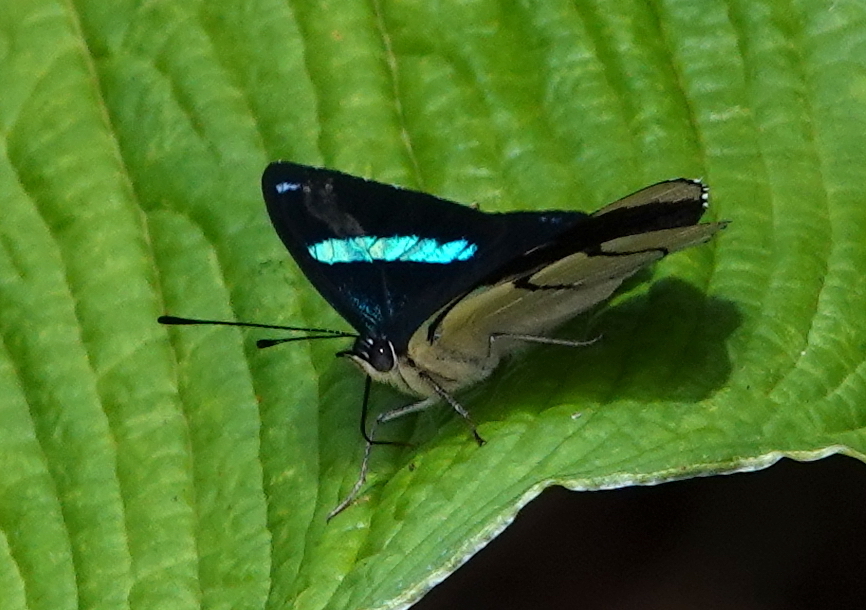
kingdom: Animalia
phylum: Arthropoda
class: Insecta
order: Lepidoptera
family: Nymphalidae
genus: Perisama
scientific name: Perisama oppelii
